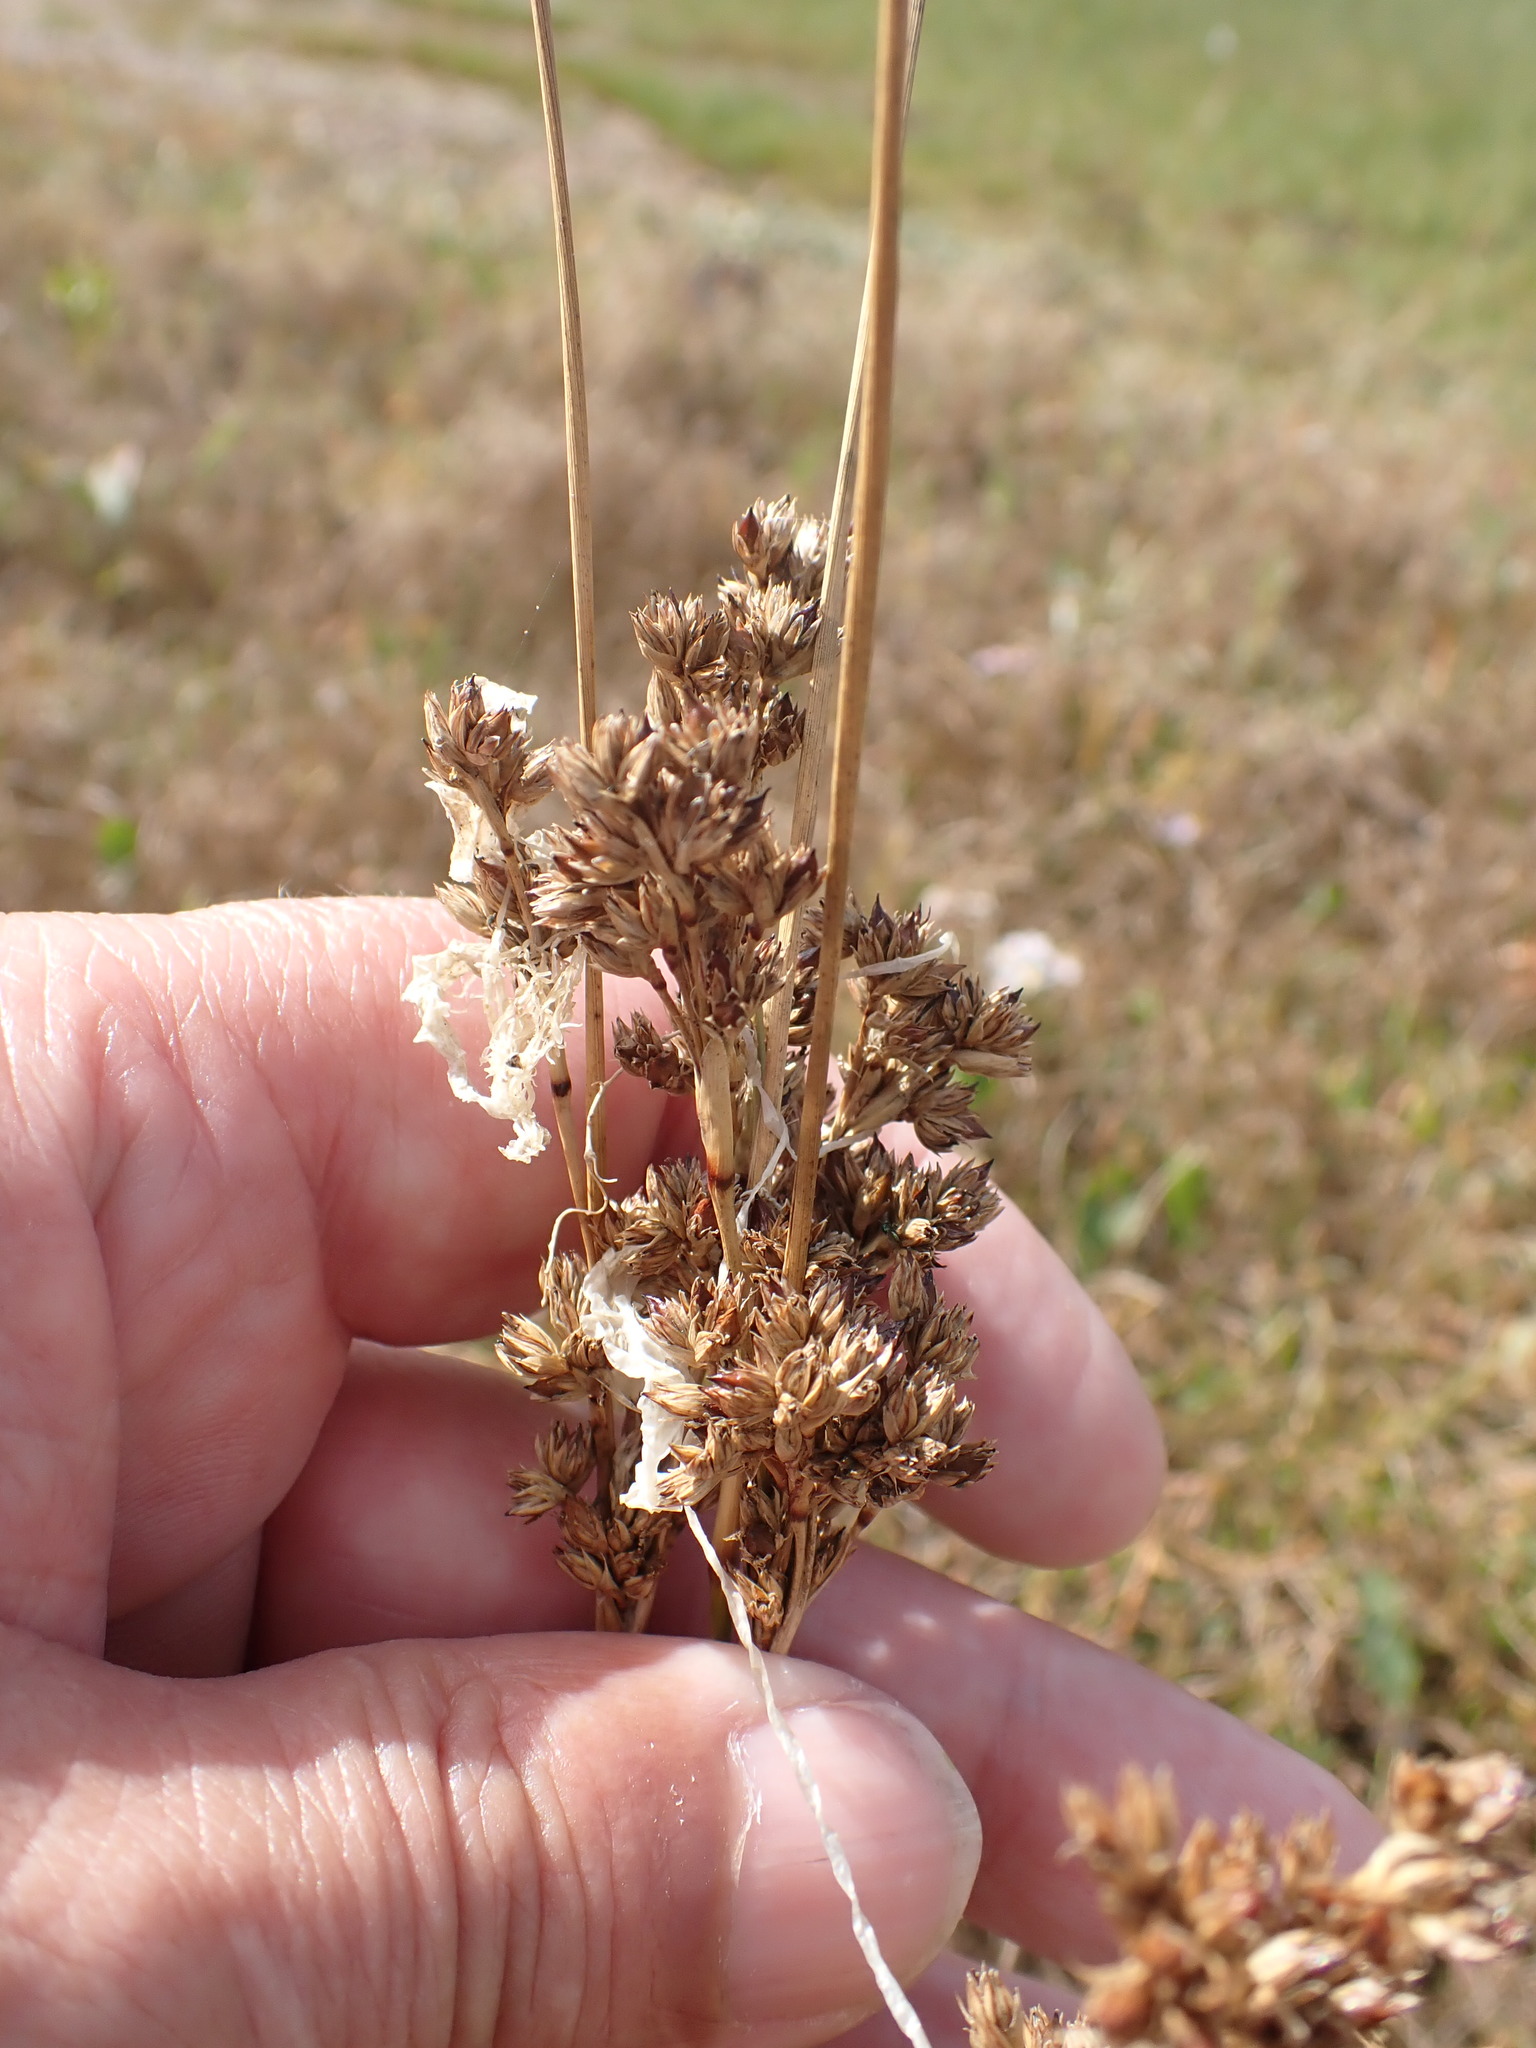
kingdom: Plantae
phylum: Tracheophyta
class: Liliopsida
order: Poales
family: Juncaceae
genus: Juncus
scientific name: Juncus maritimus
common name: Sea rush
